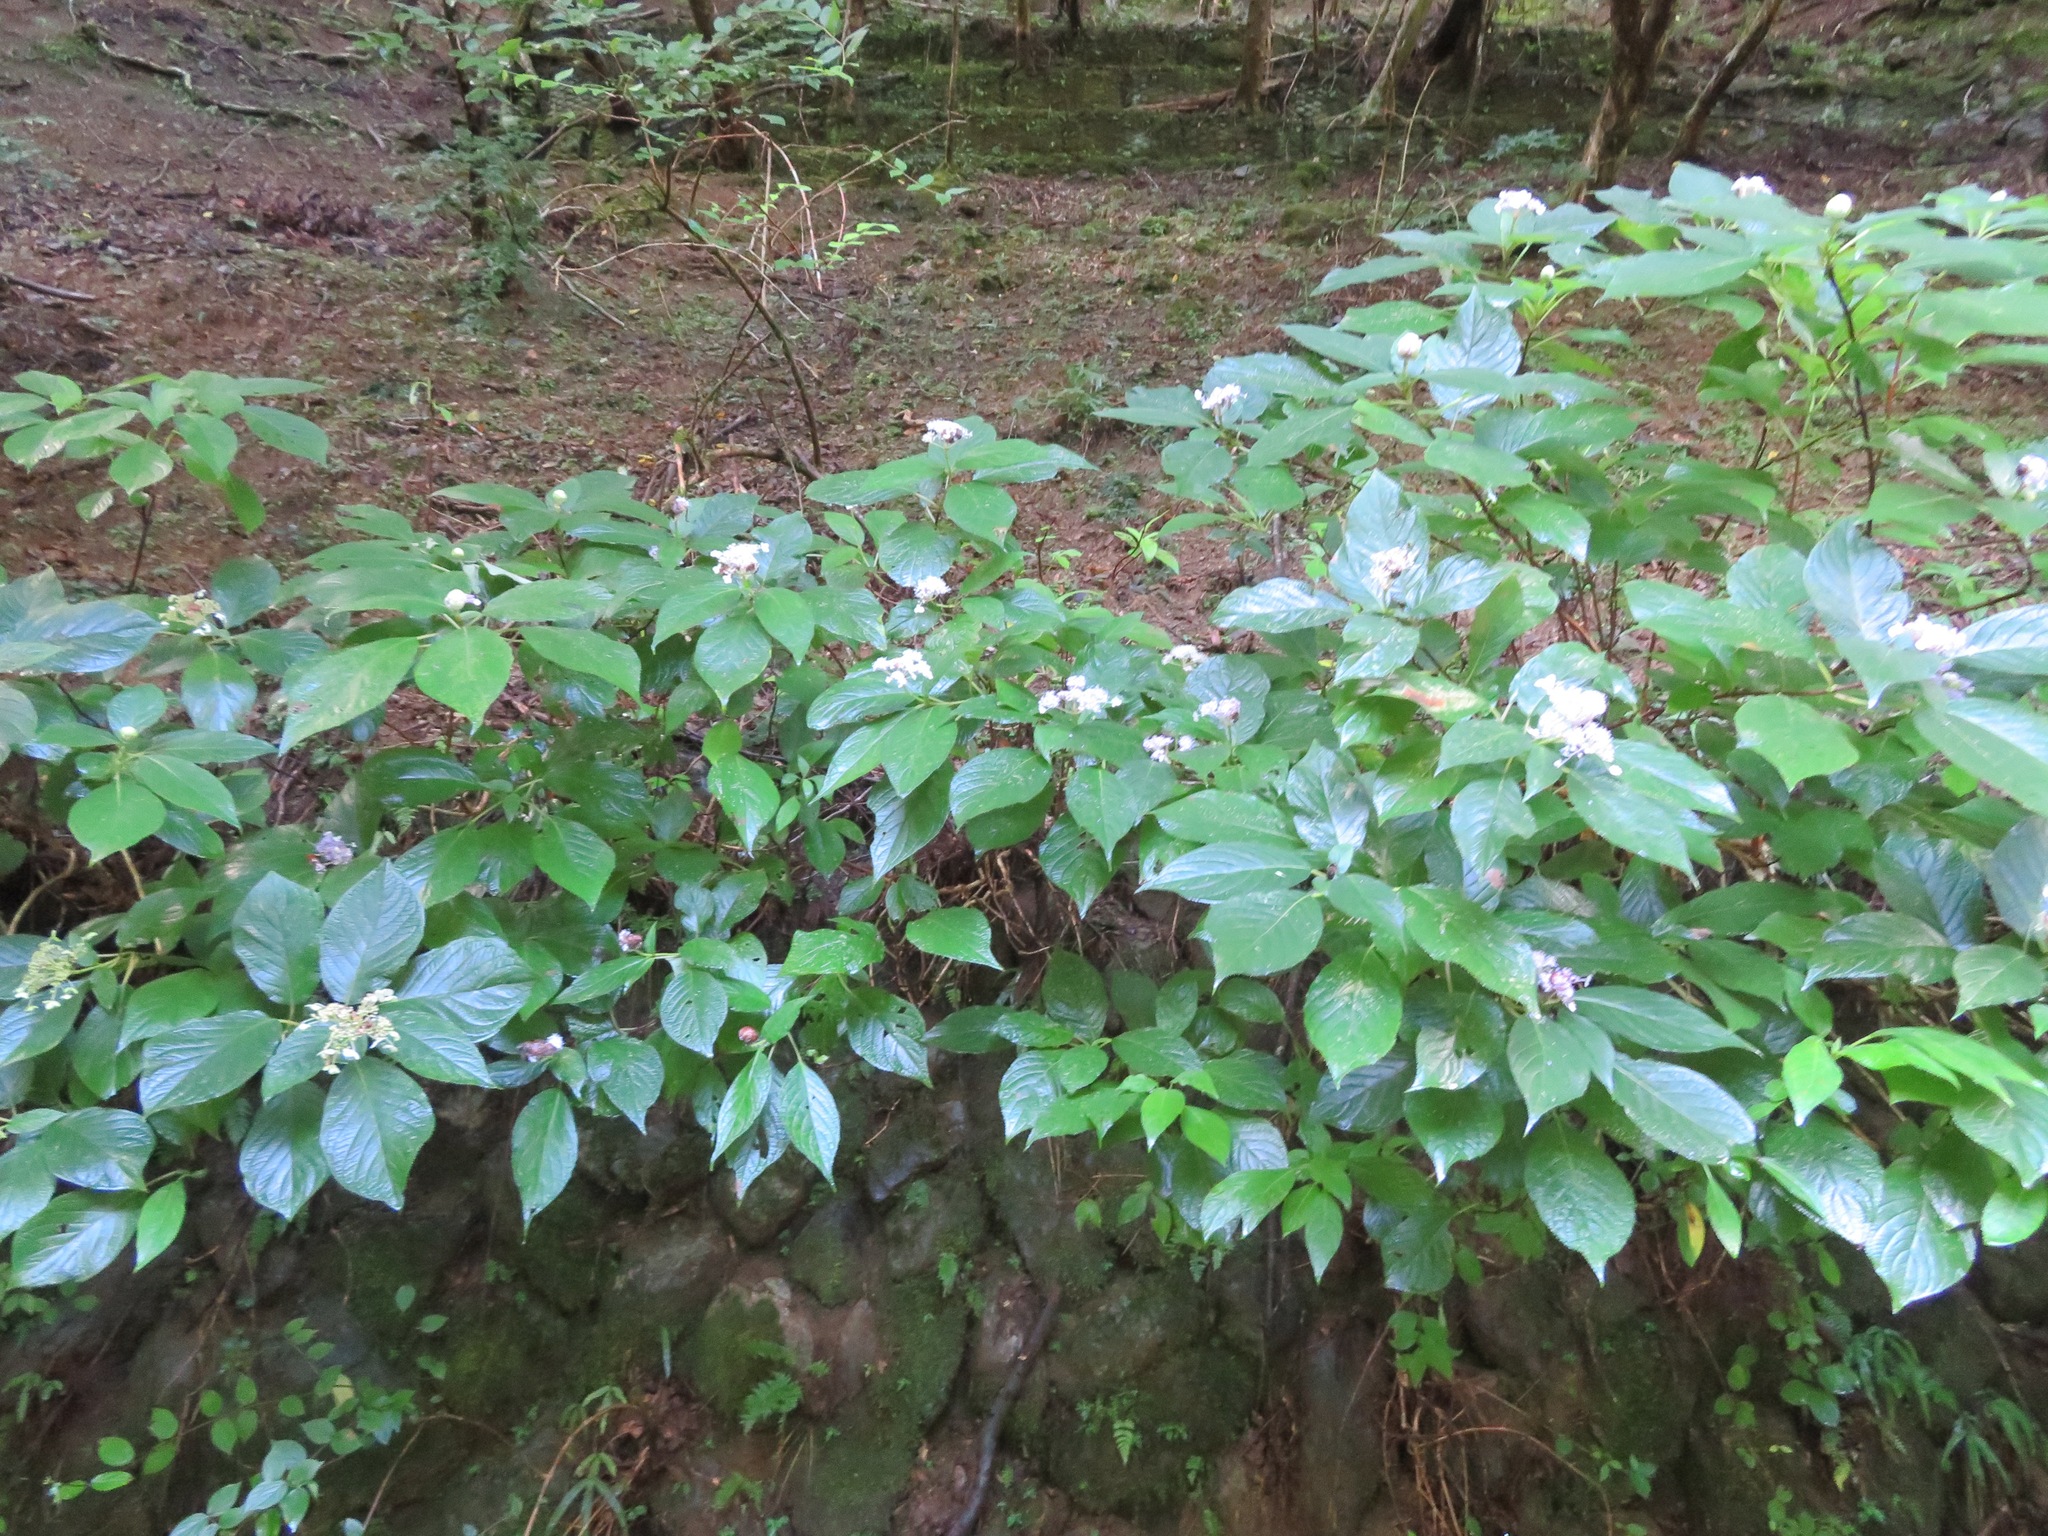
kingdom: Plantae
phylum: Tracheophyta
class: Magnoliopsida
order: Cornales
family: Hydrangeaceae
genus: Hydrangea
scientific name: Hydrangea involucrata
